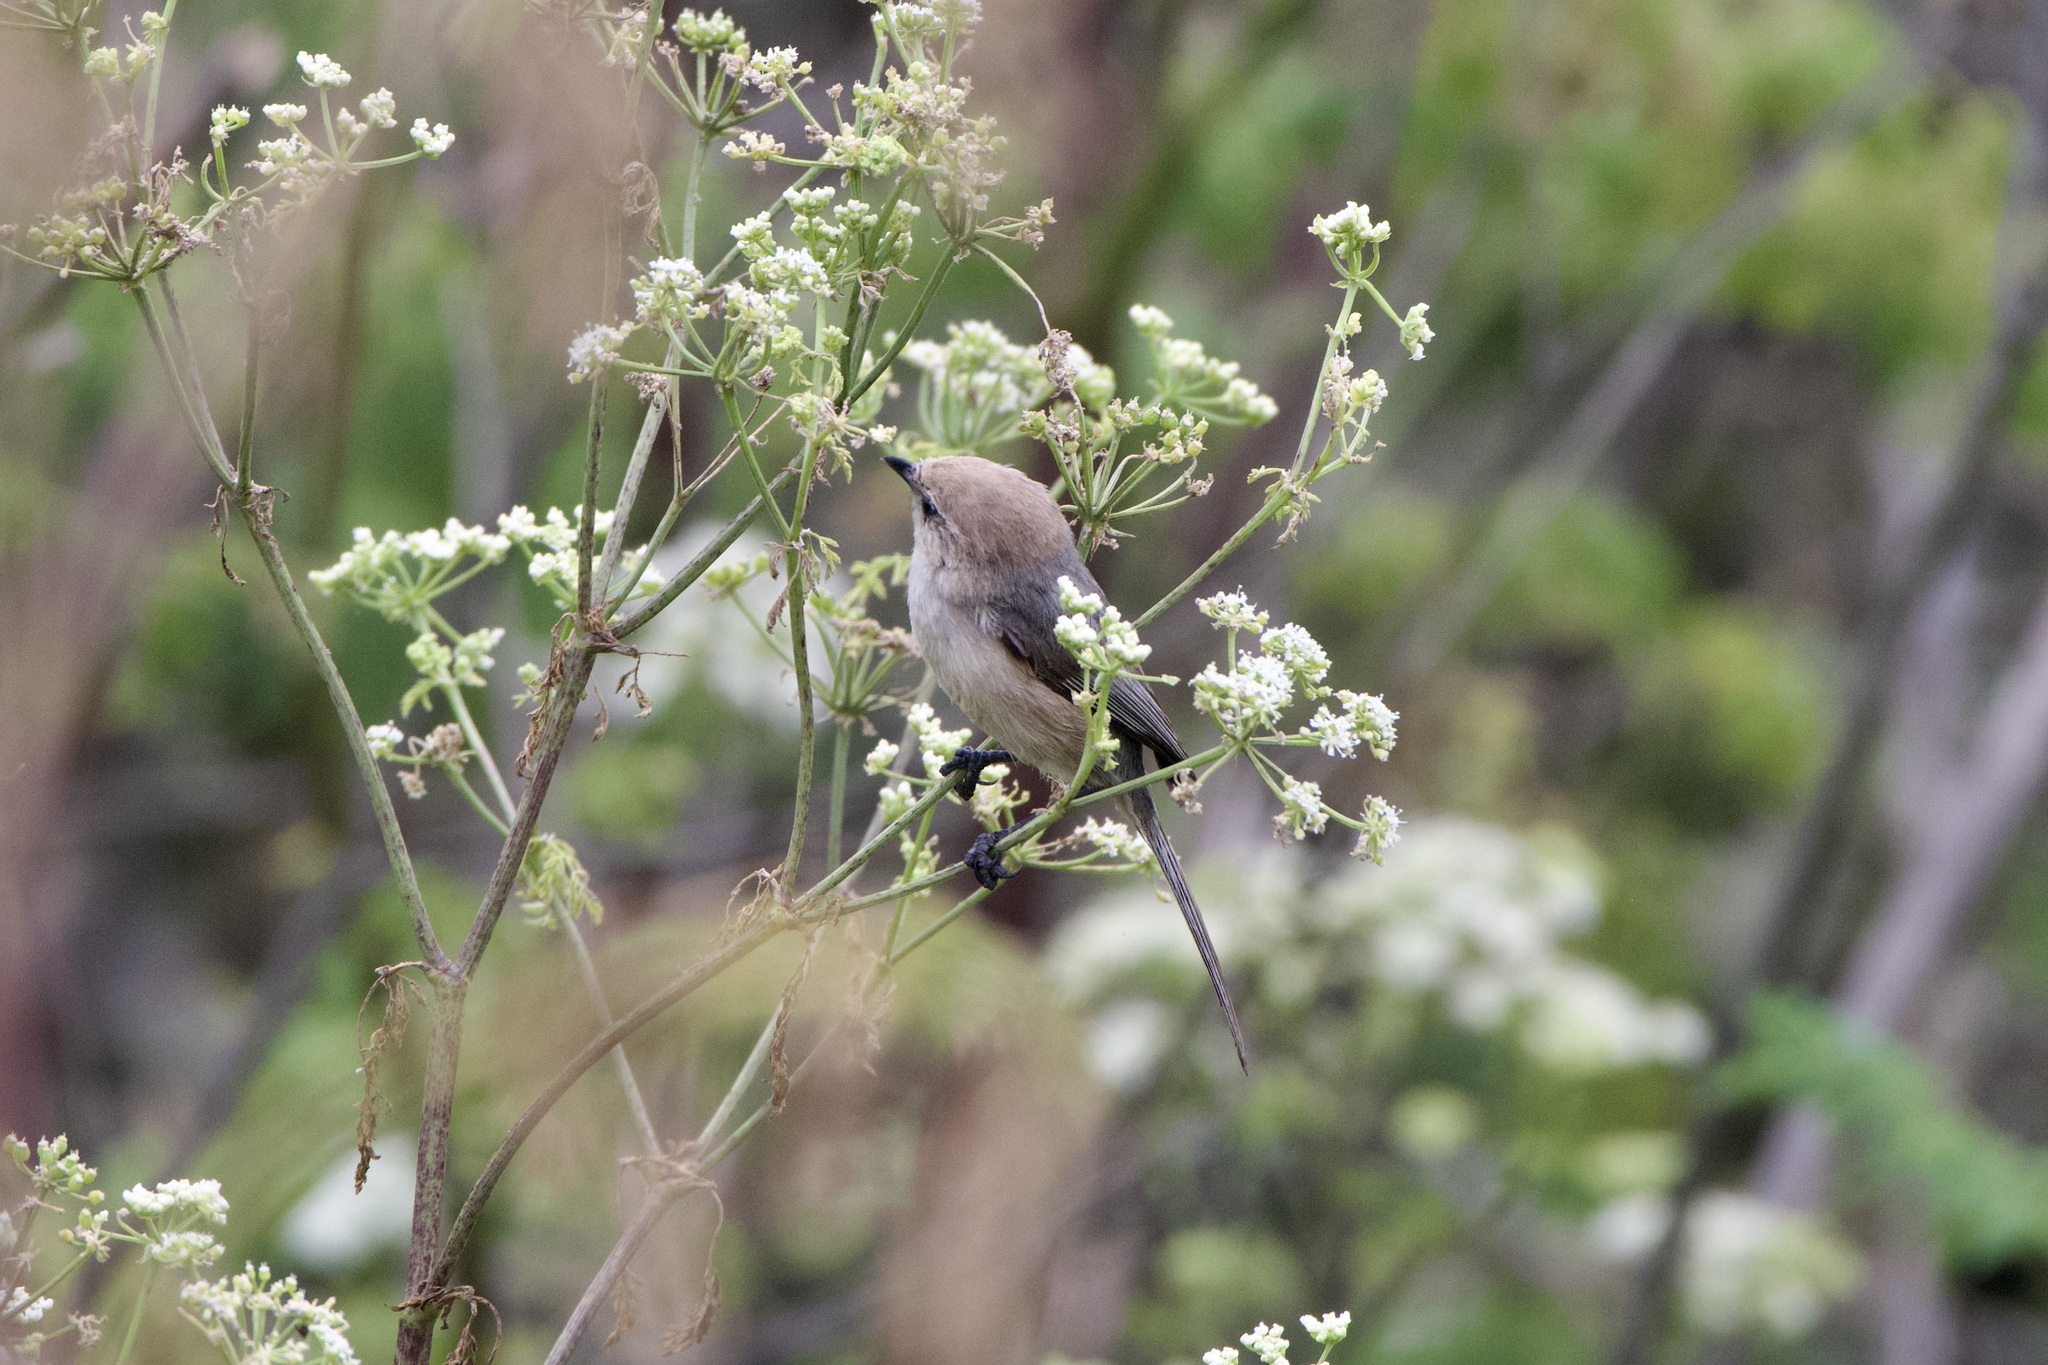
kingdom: Animalia
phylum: Chordata
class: Aves
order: Passeriformes
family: Aegithalidae
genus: Psaltriparus
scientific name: Psaltriparus minimus
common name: American bushtit
